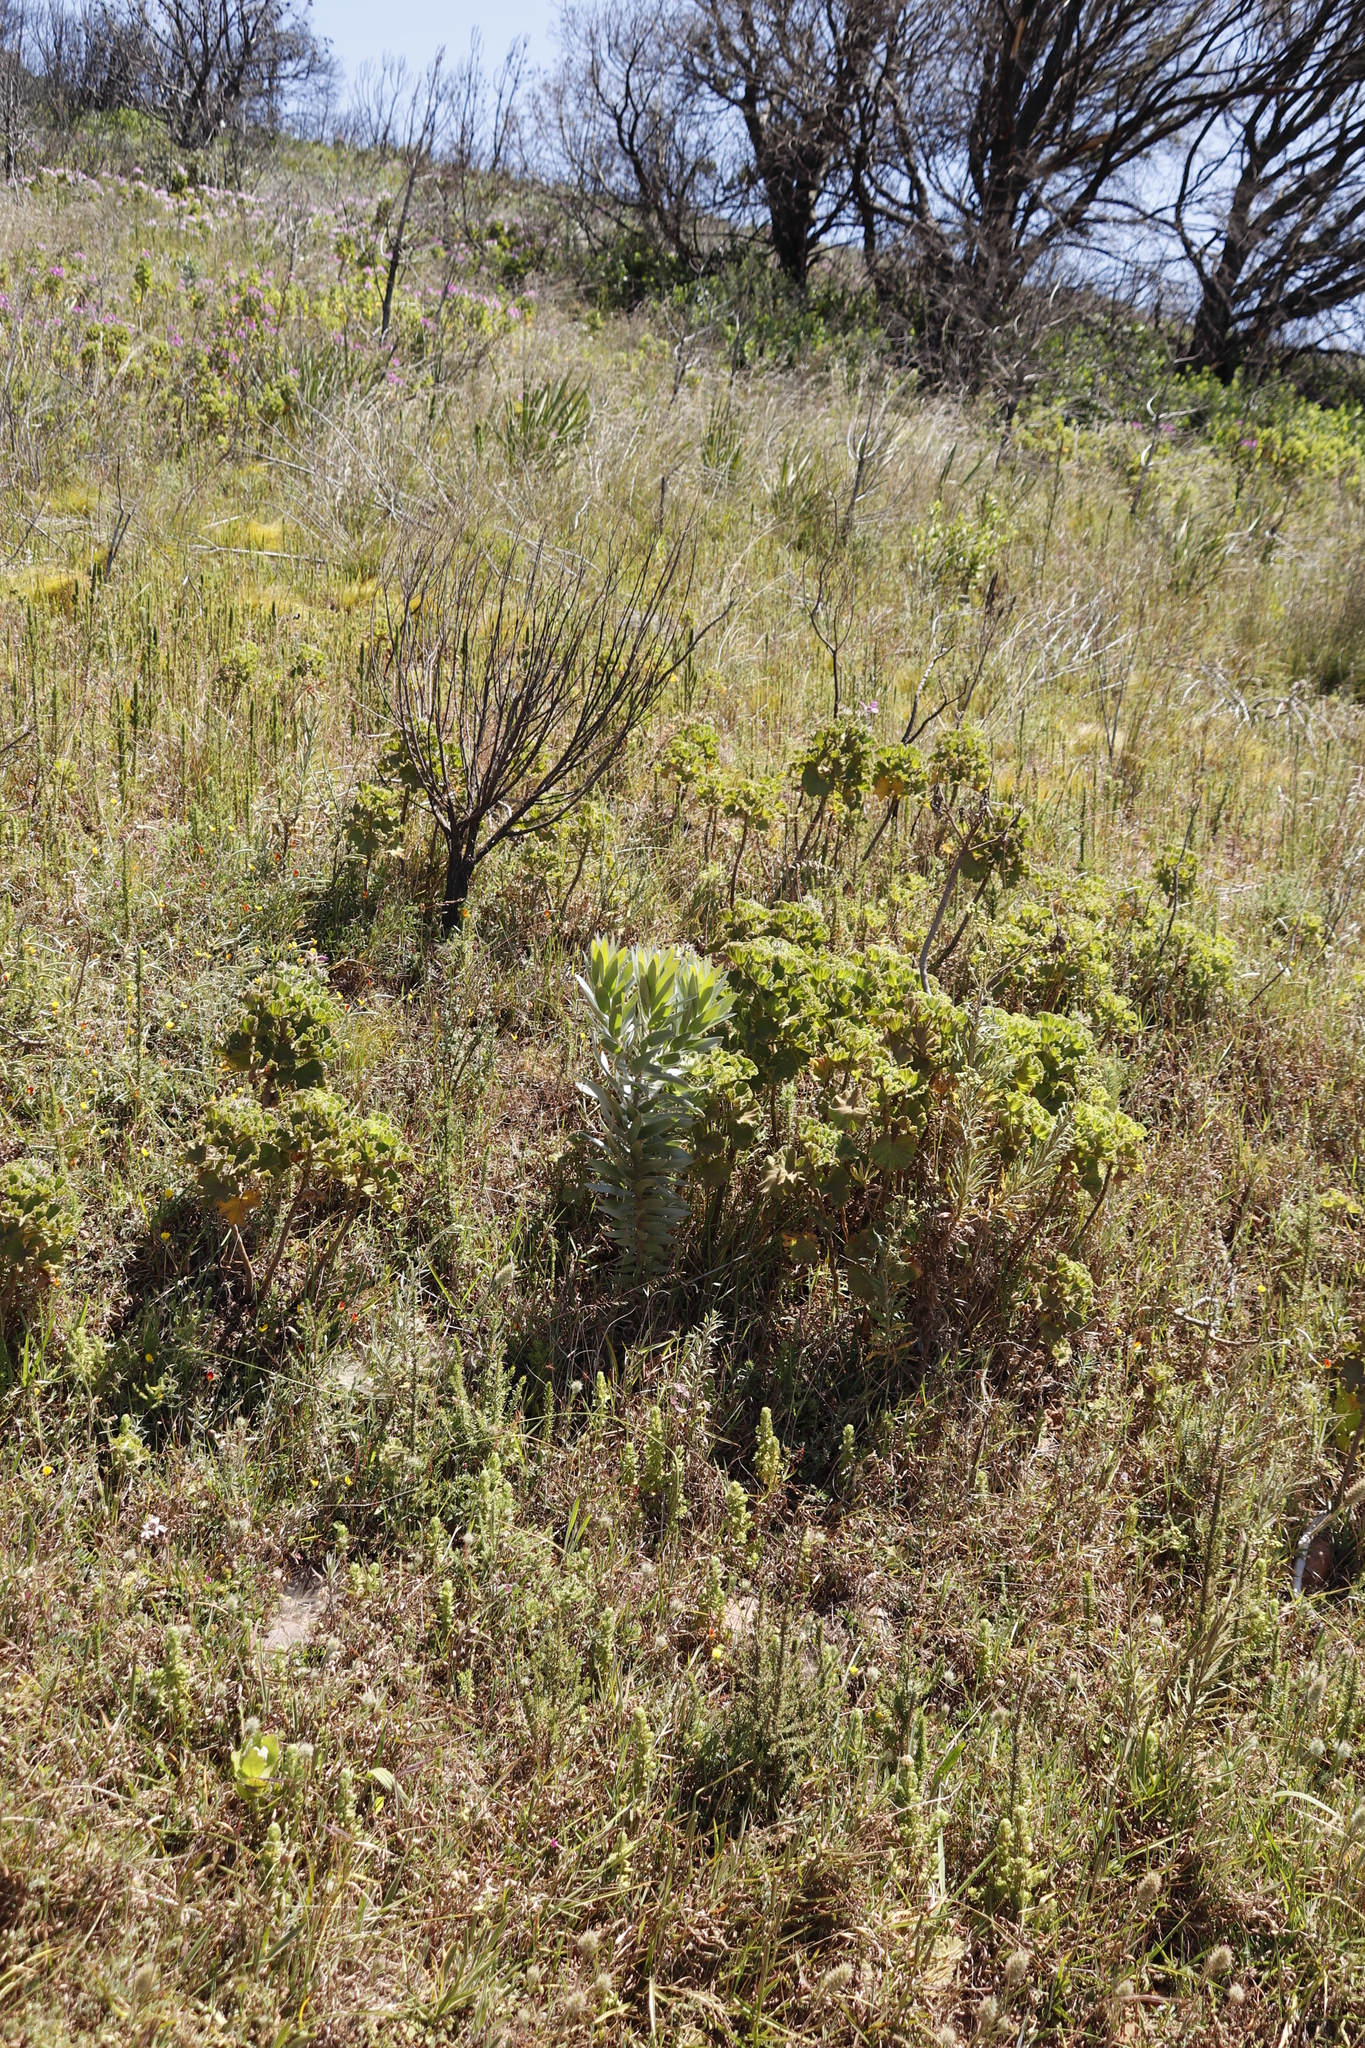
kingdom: Plantae
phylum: Tracheophyta
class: Magnoliopsida
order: Proteales
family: Proteaceae
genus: Leucadendron
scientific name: Leucadendron argenteum
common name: Cape silver tree
